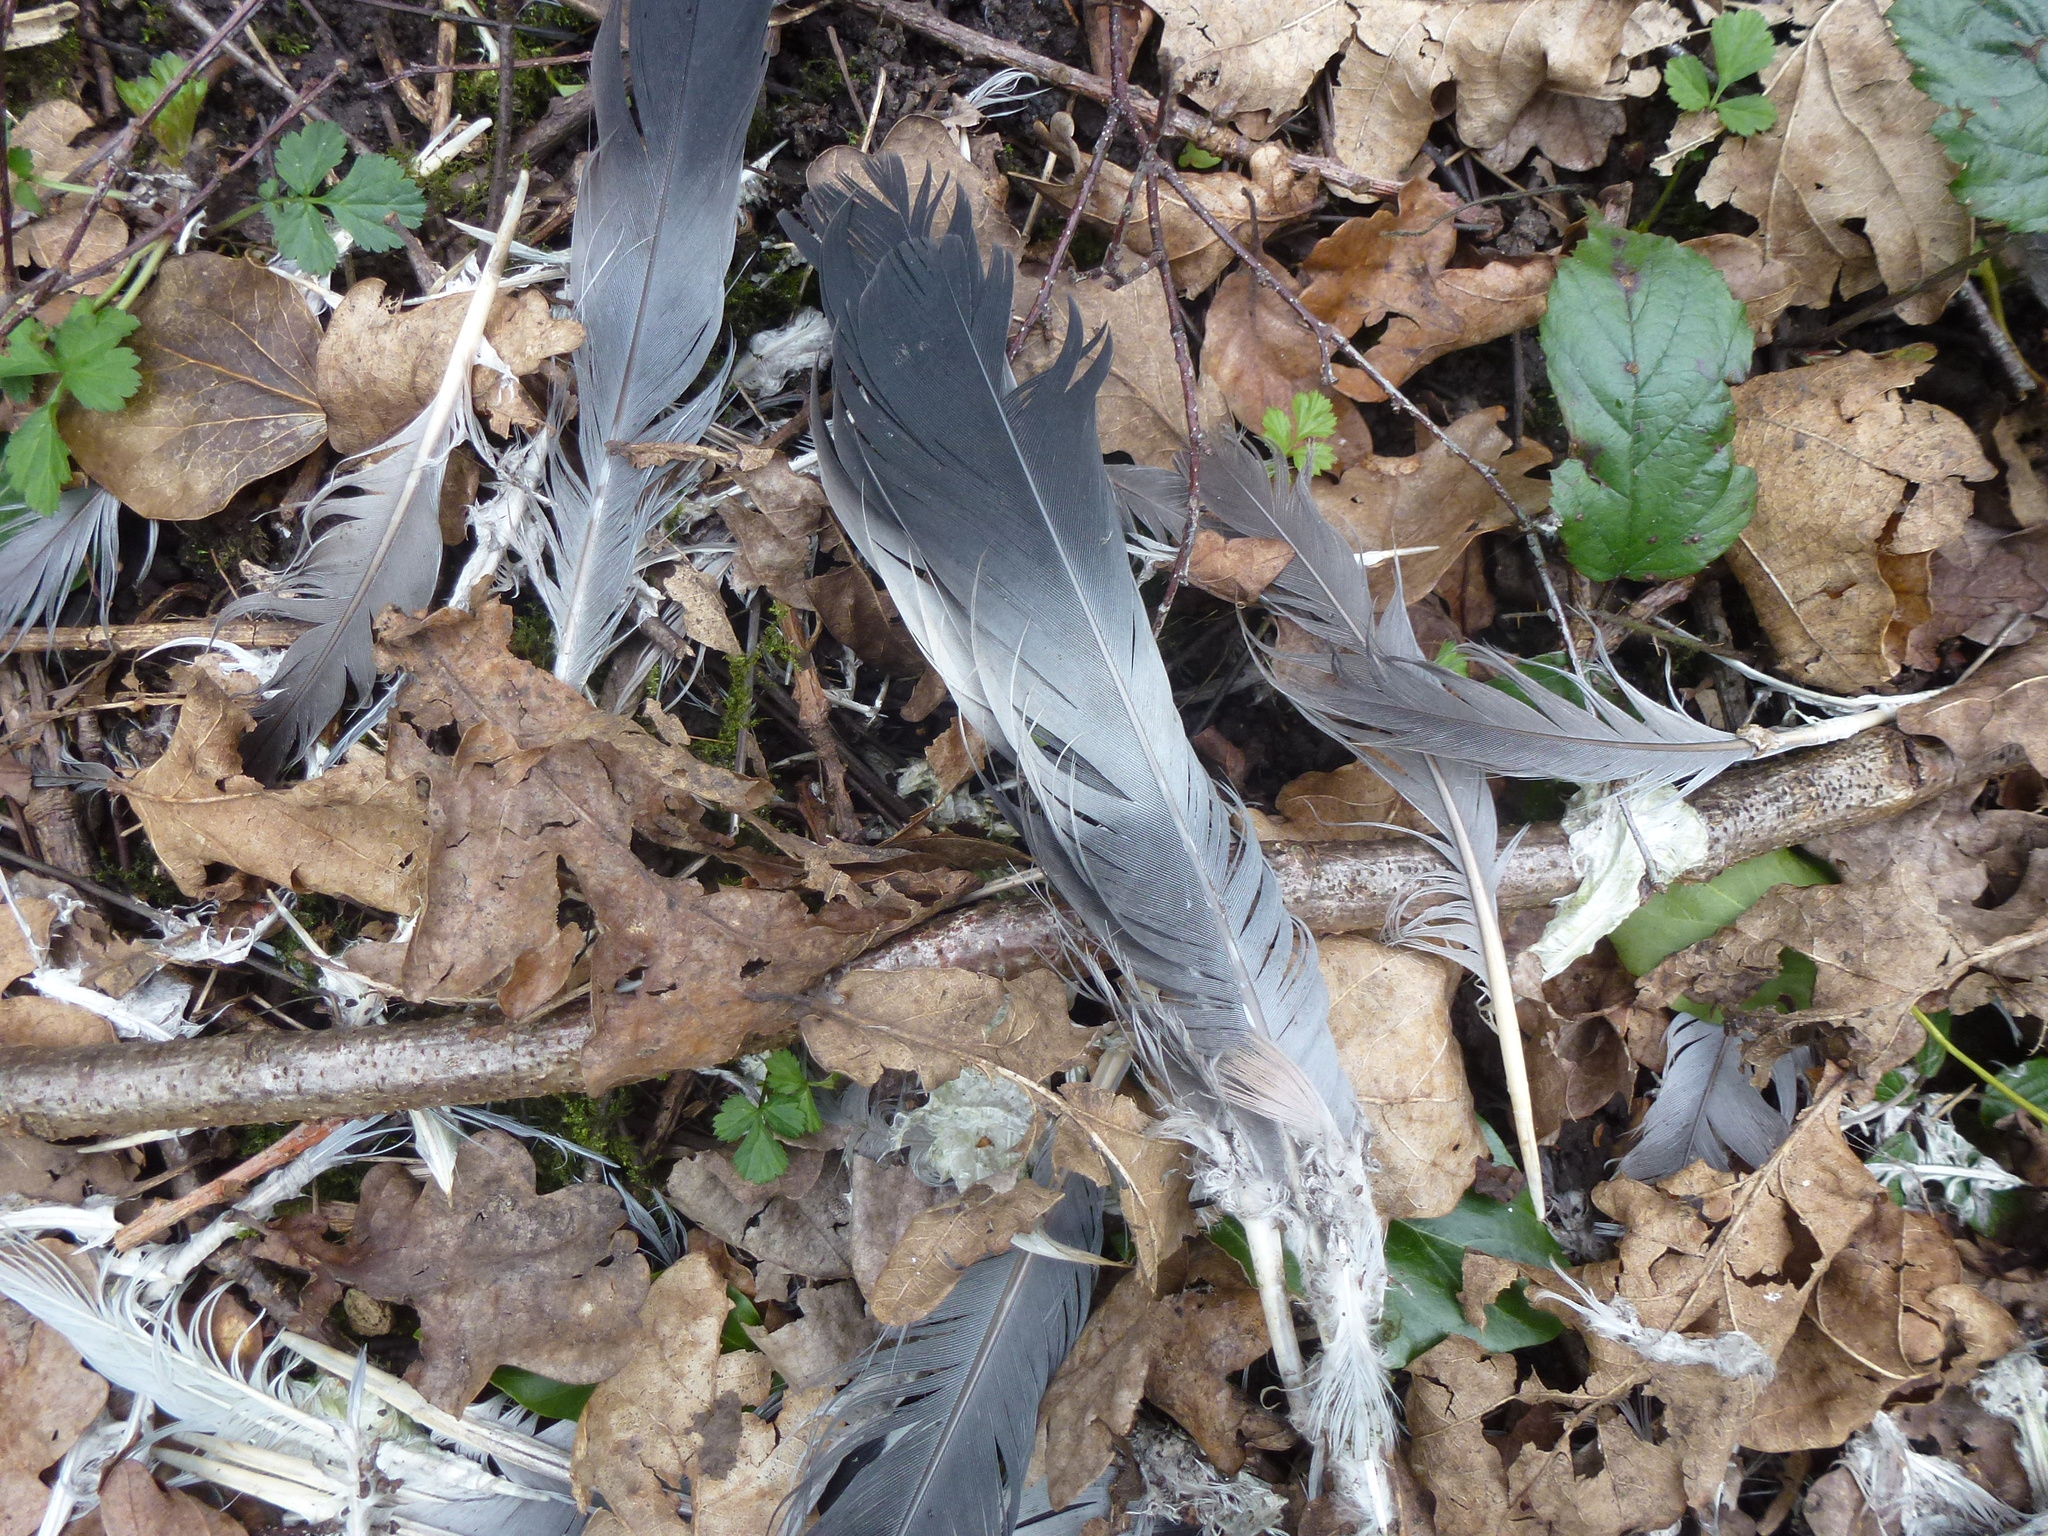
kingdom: Animalia
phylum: Chordata
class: Aves
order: Columbiformes
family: Columbidae
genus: Columba
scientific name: Columba palumbus
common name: Common wood pigeon
